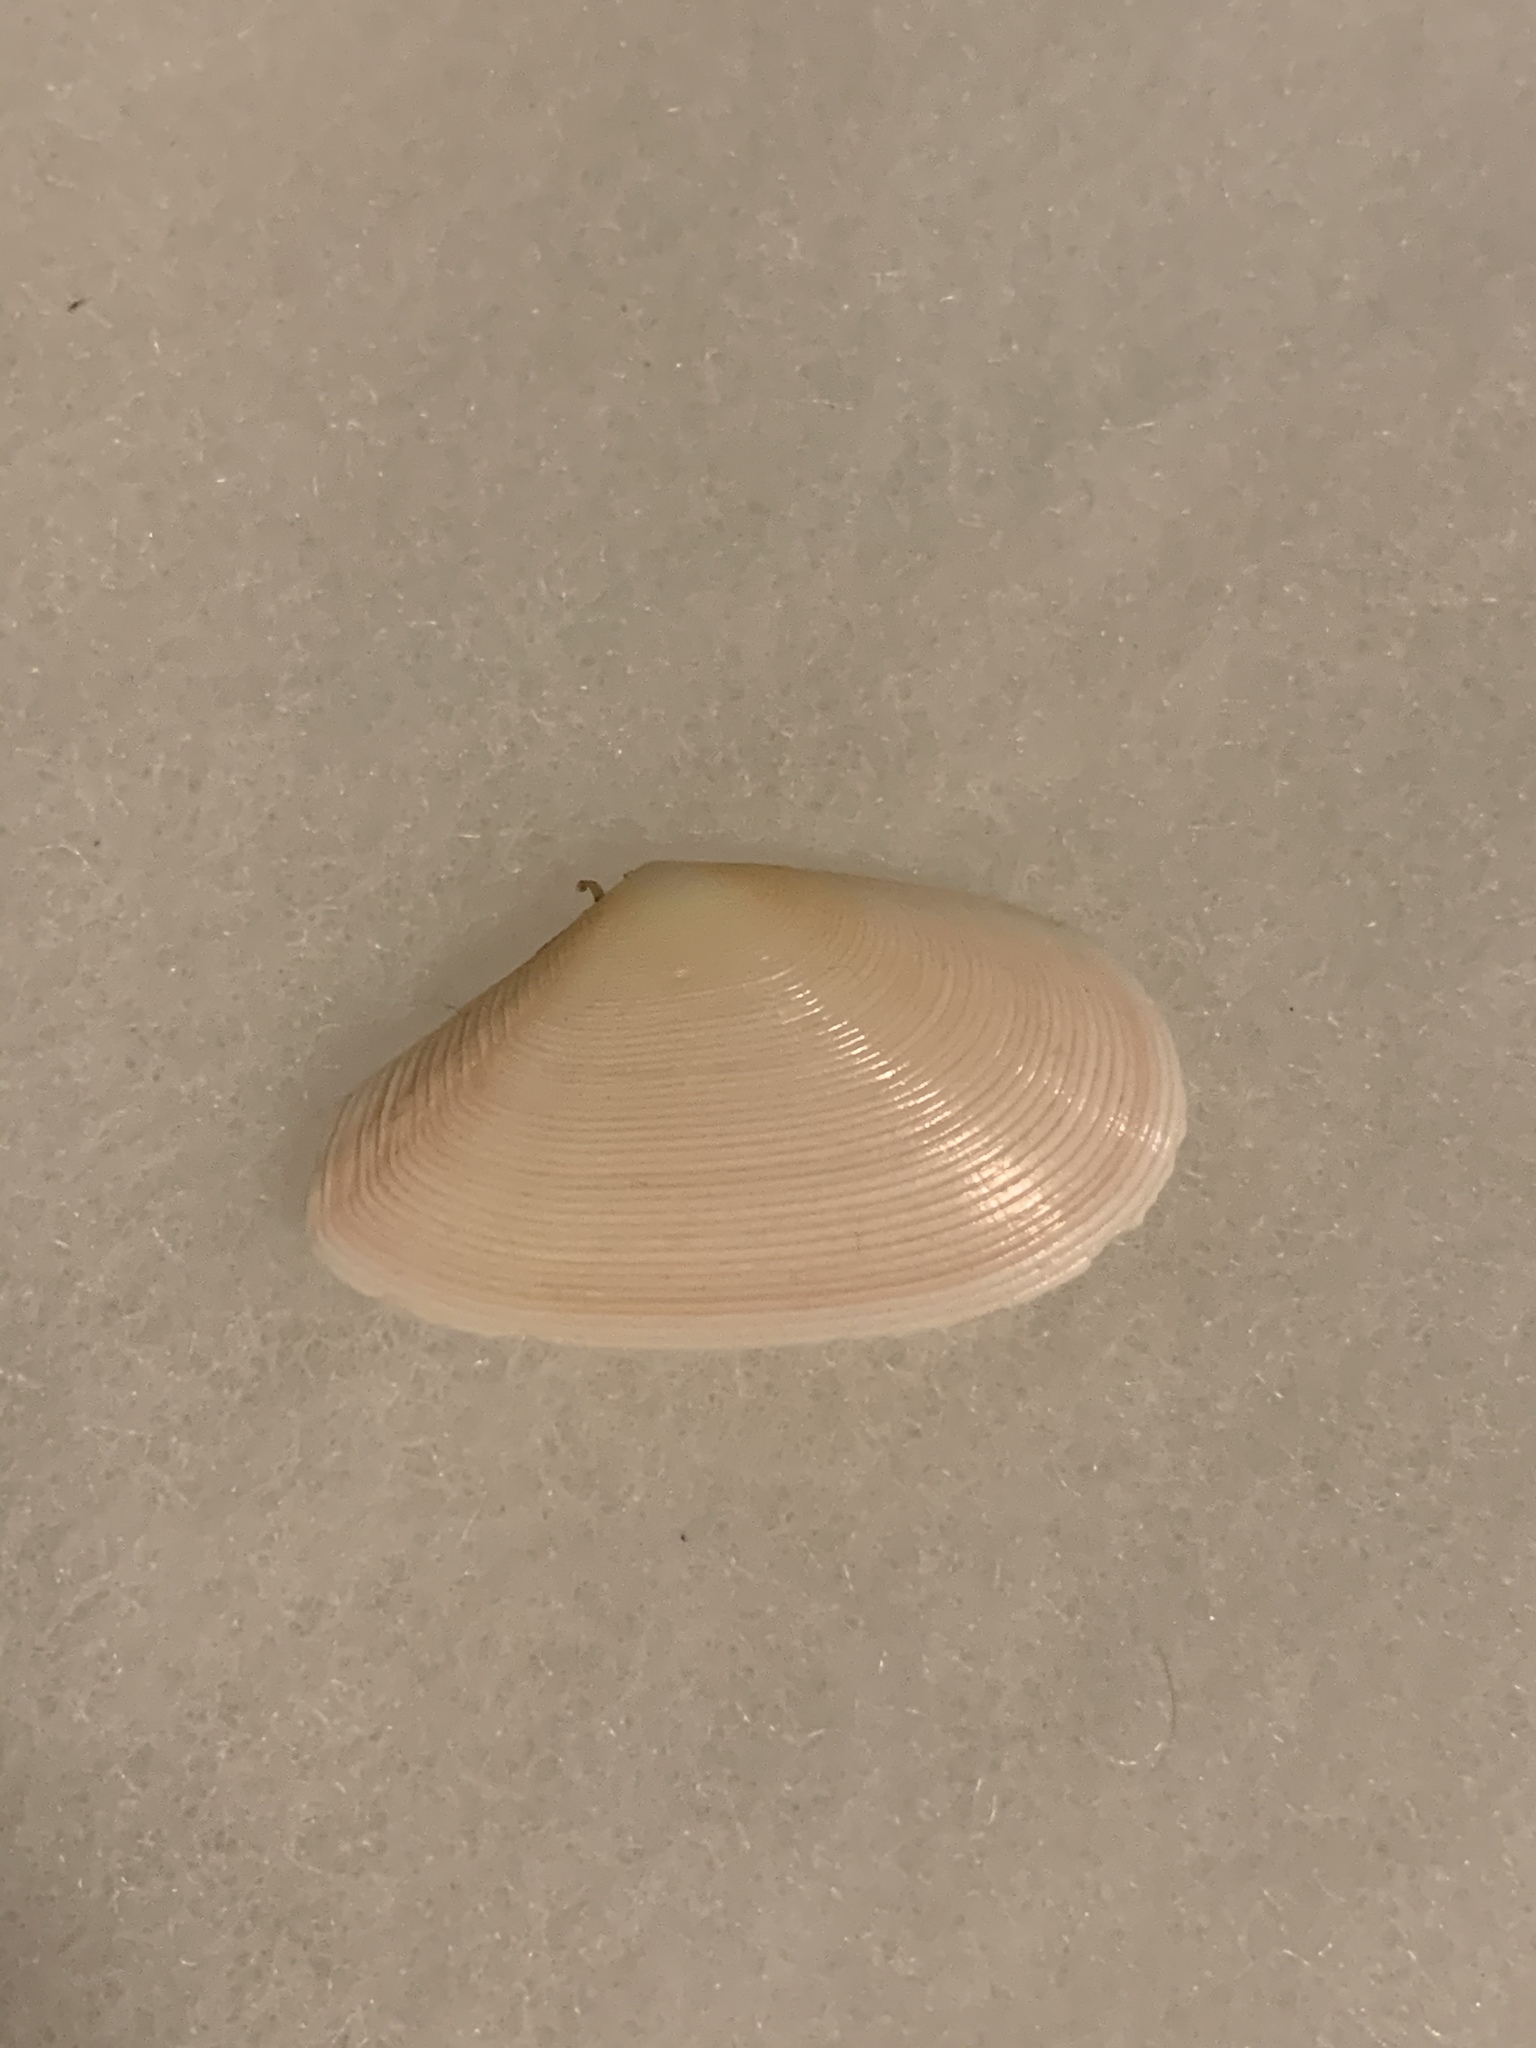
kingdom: Animalia
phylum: Mollusca
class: Bivalvia
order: Cardiida
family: Tellinidae
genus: Eurytellina
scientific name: Eurytellina alternata
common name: Alternate tellin
